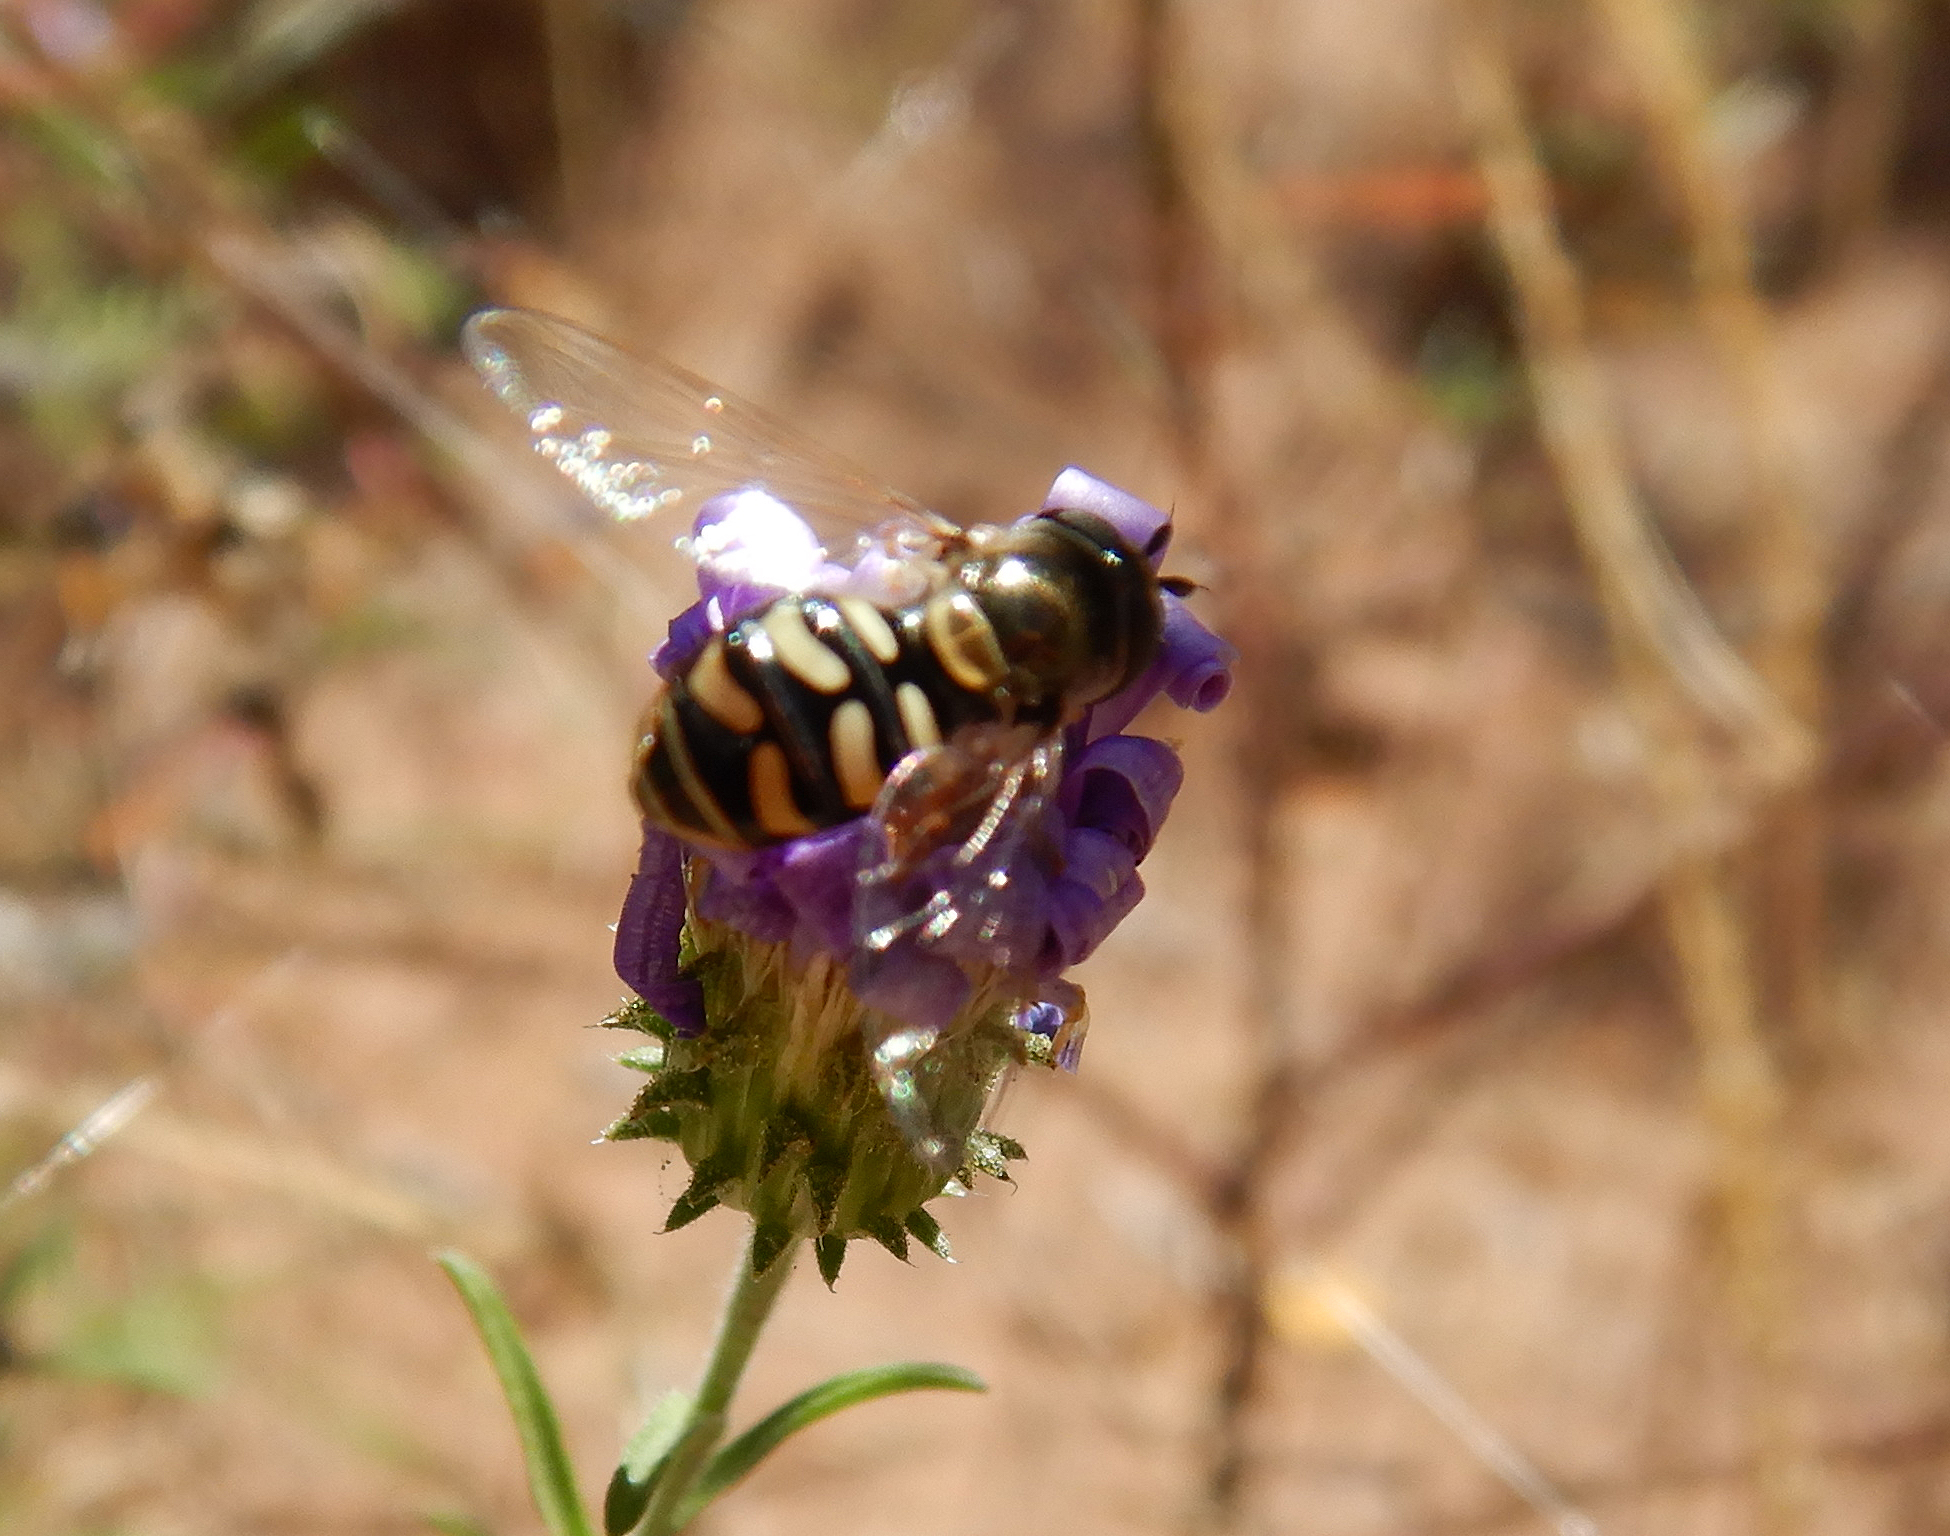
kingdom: Animalia
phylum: Arthropoda
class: Insecta
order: Diptera
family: Syrphidae
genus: Eupeodes
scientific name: Eupeodes volucris
